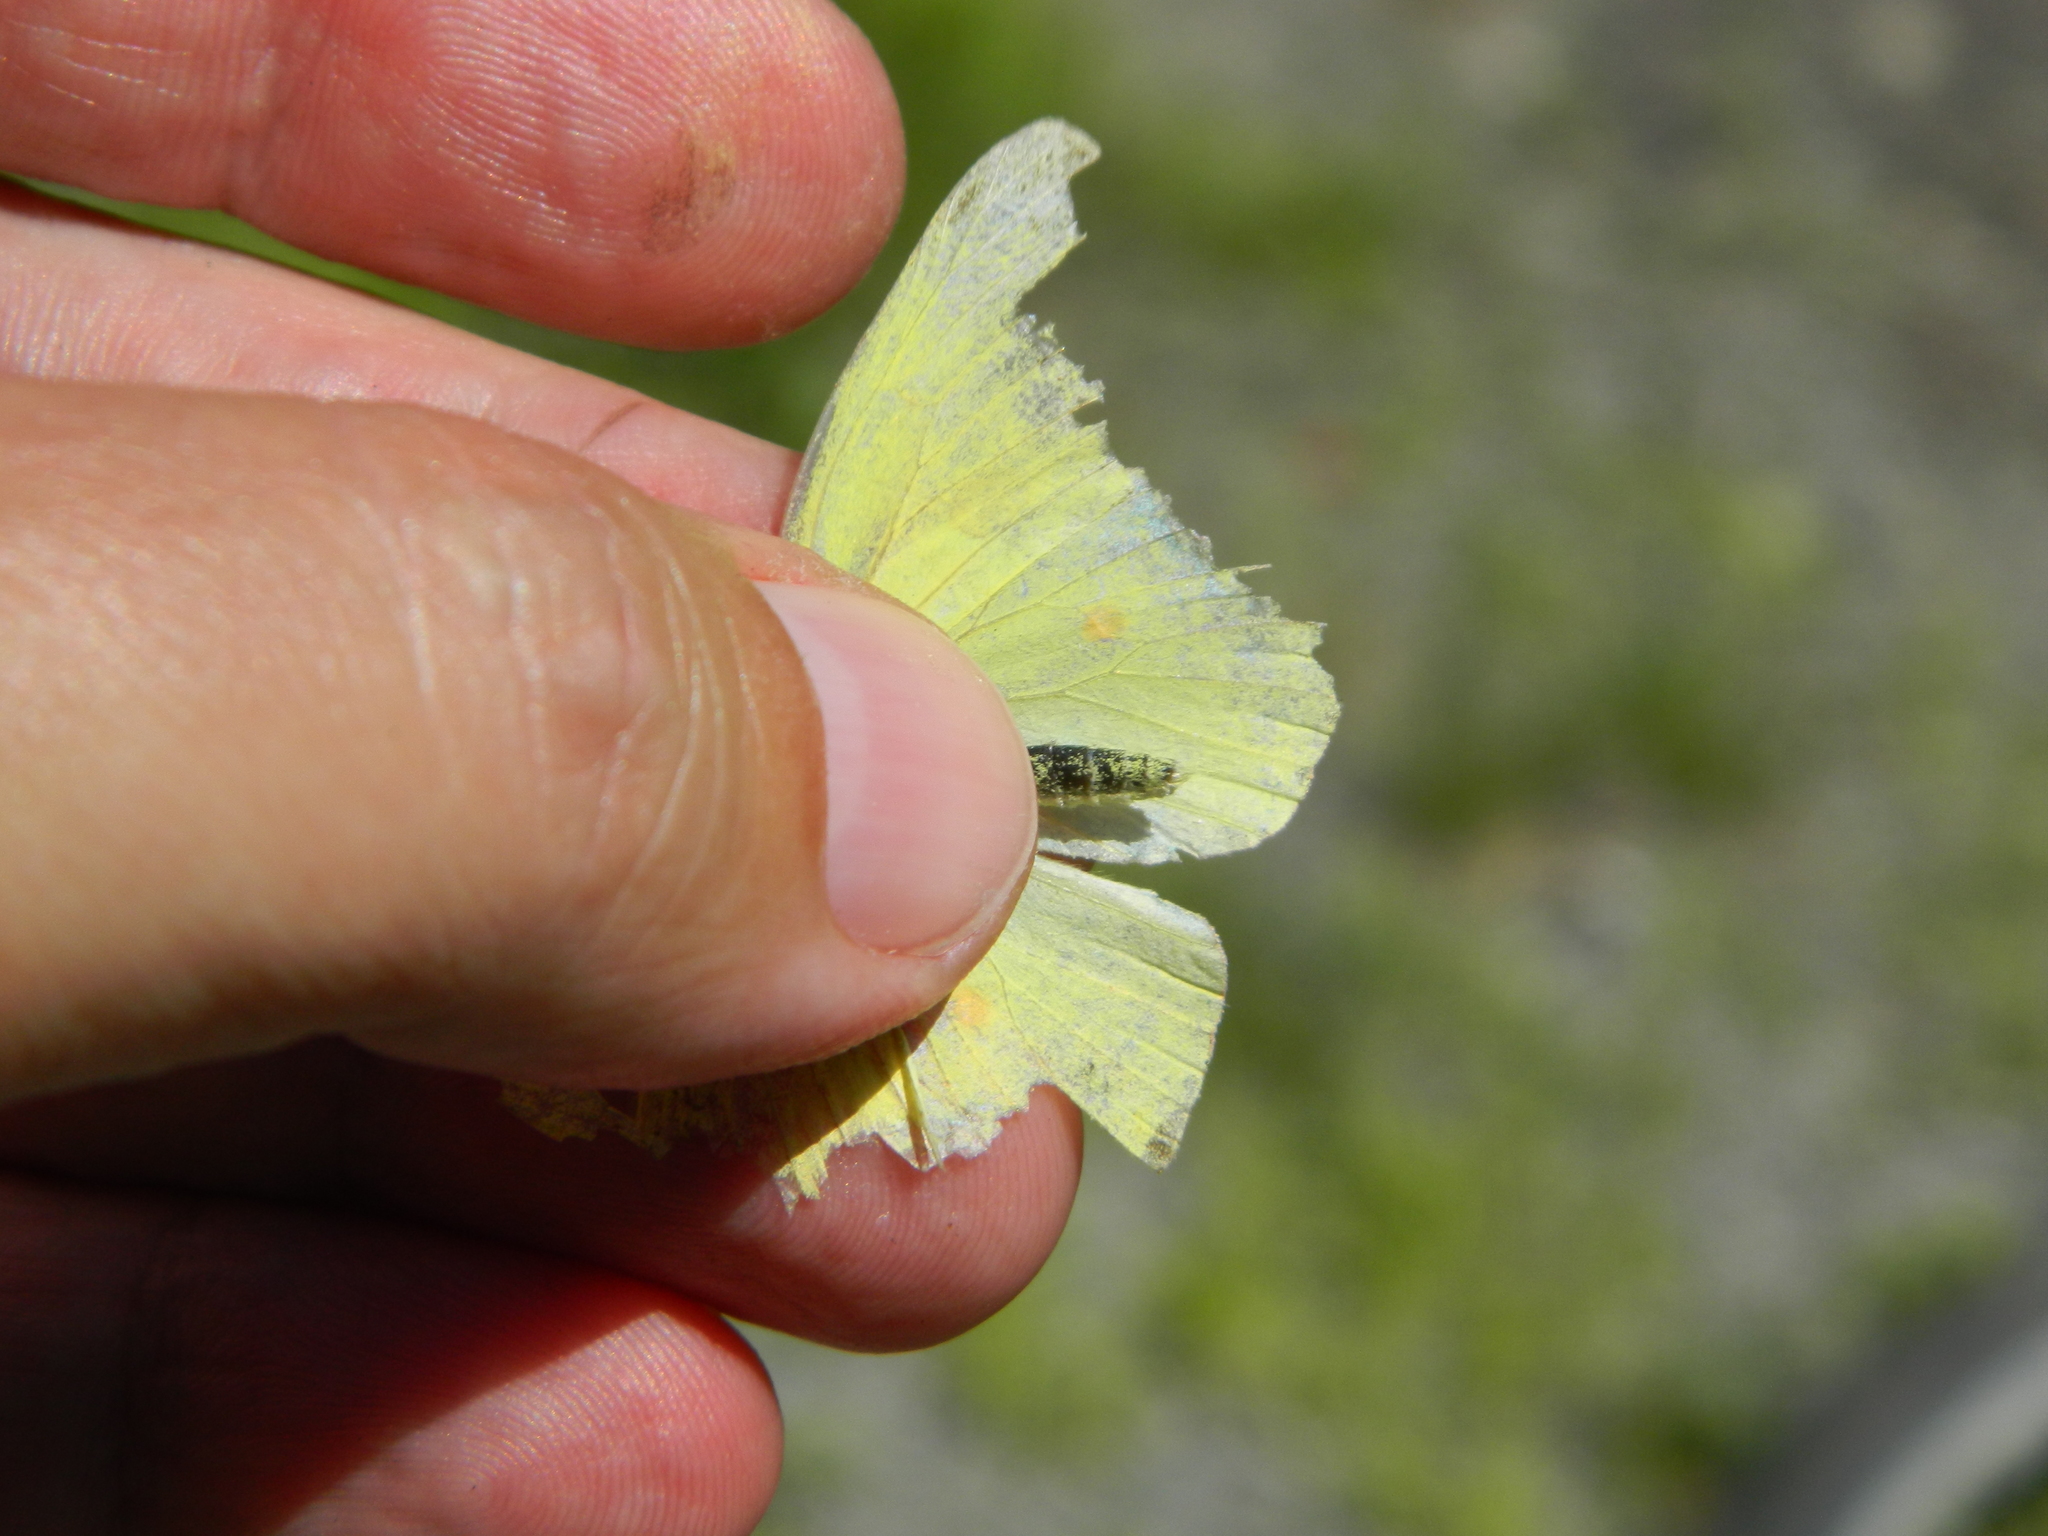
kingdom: Animalia
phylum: Arthropoda
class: Insecta
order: Lepidoptera
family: Pieridae
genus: Colias
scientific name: Colias interior
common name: Pink-edged sulphur
